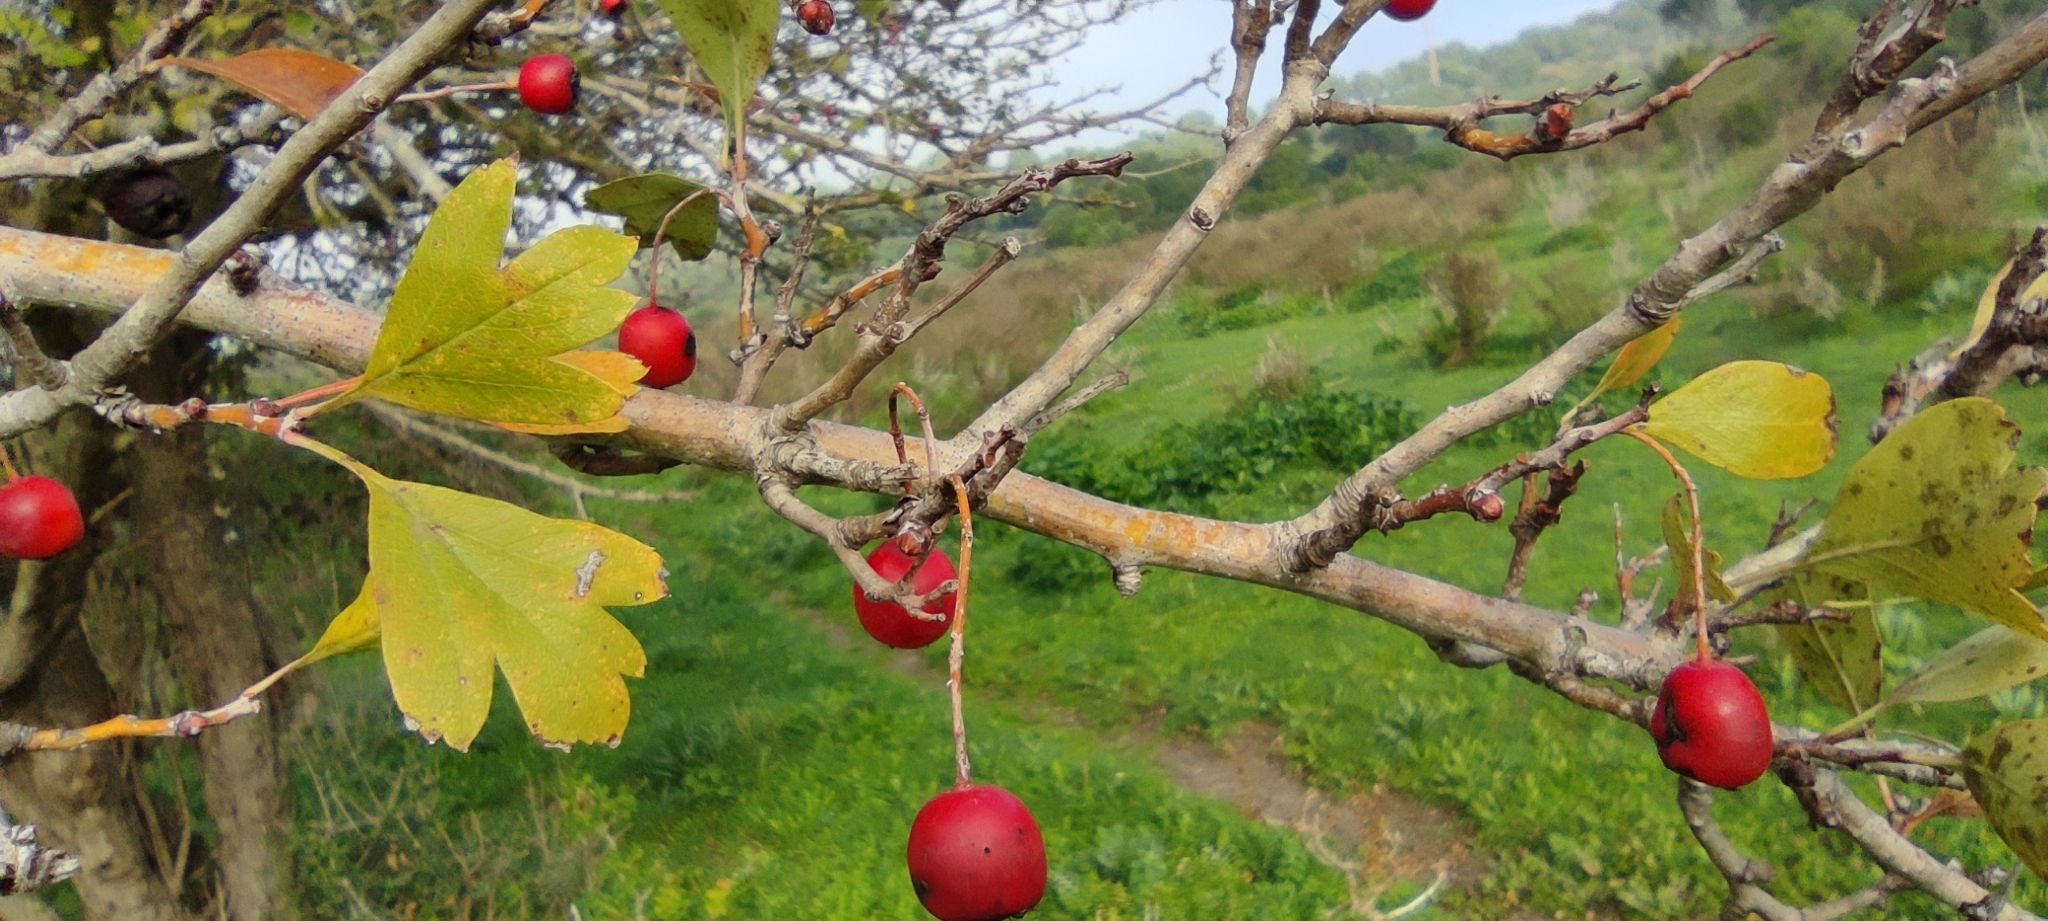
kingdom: Plantae
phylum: Tracheophyta
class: Magnoliopsida
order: Rosales
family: Rosaceae
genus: Crataegus
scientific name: Crataegus monogyna
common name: Hawthorn
